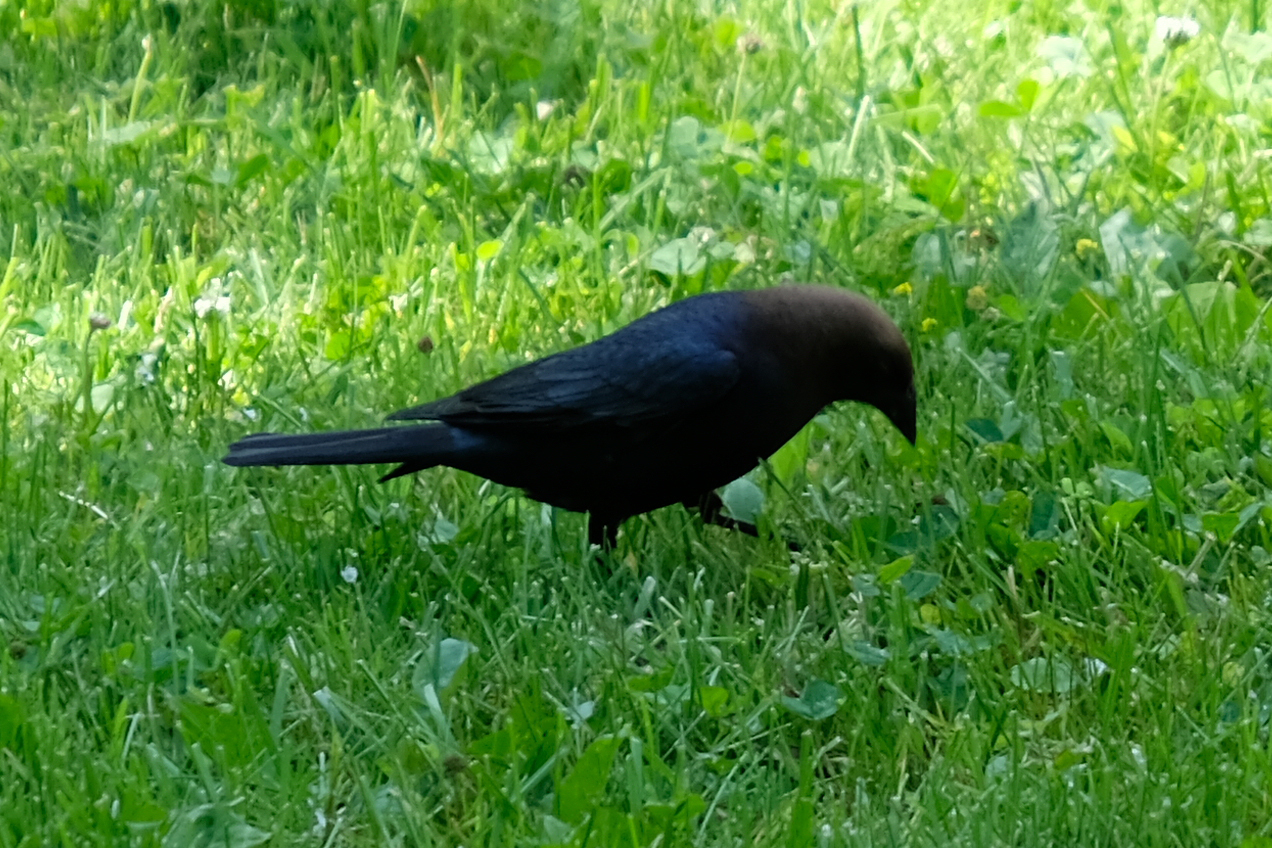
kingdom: Animalia
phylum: Chordata
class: Aves
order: Passeriformes
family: Icteridae
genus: Molothrus
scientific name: Molothrus ater
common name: Brown-headed cowbird
